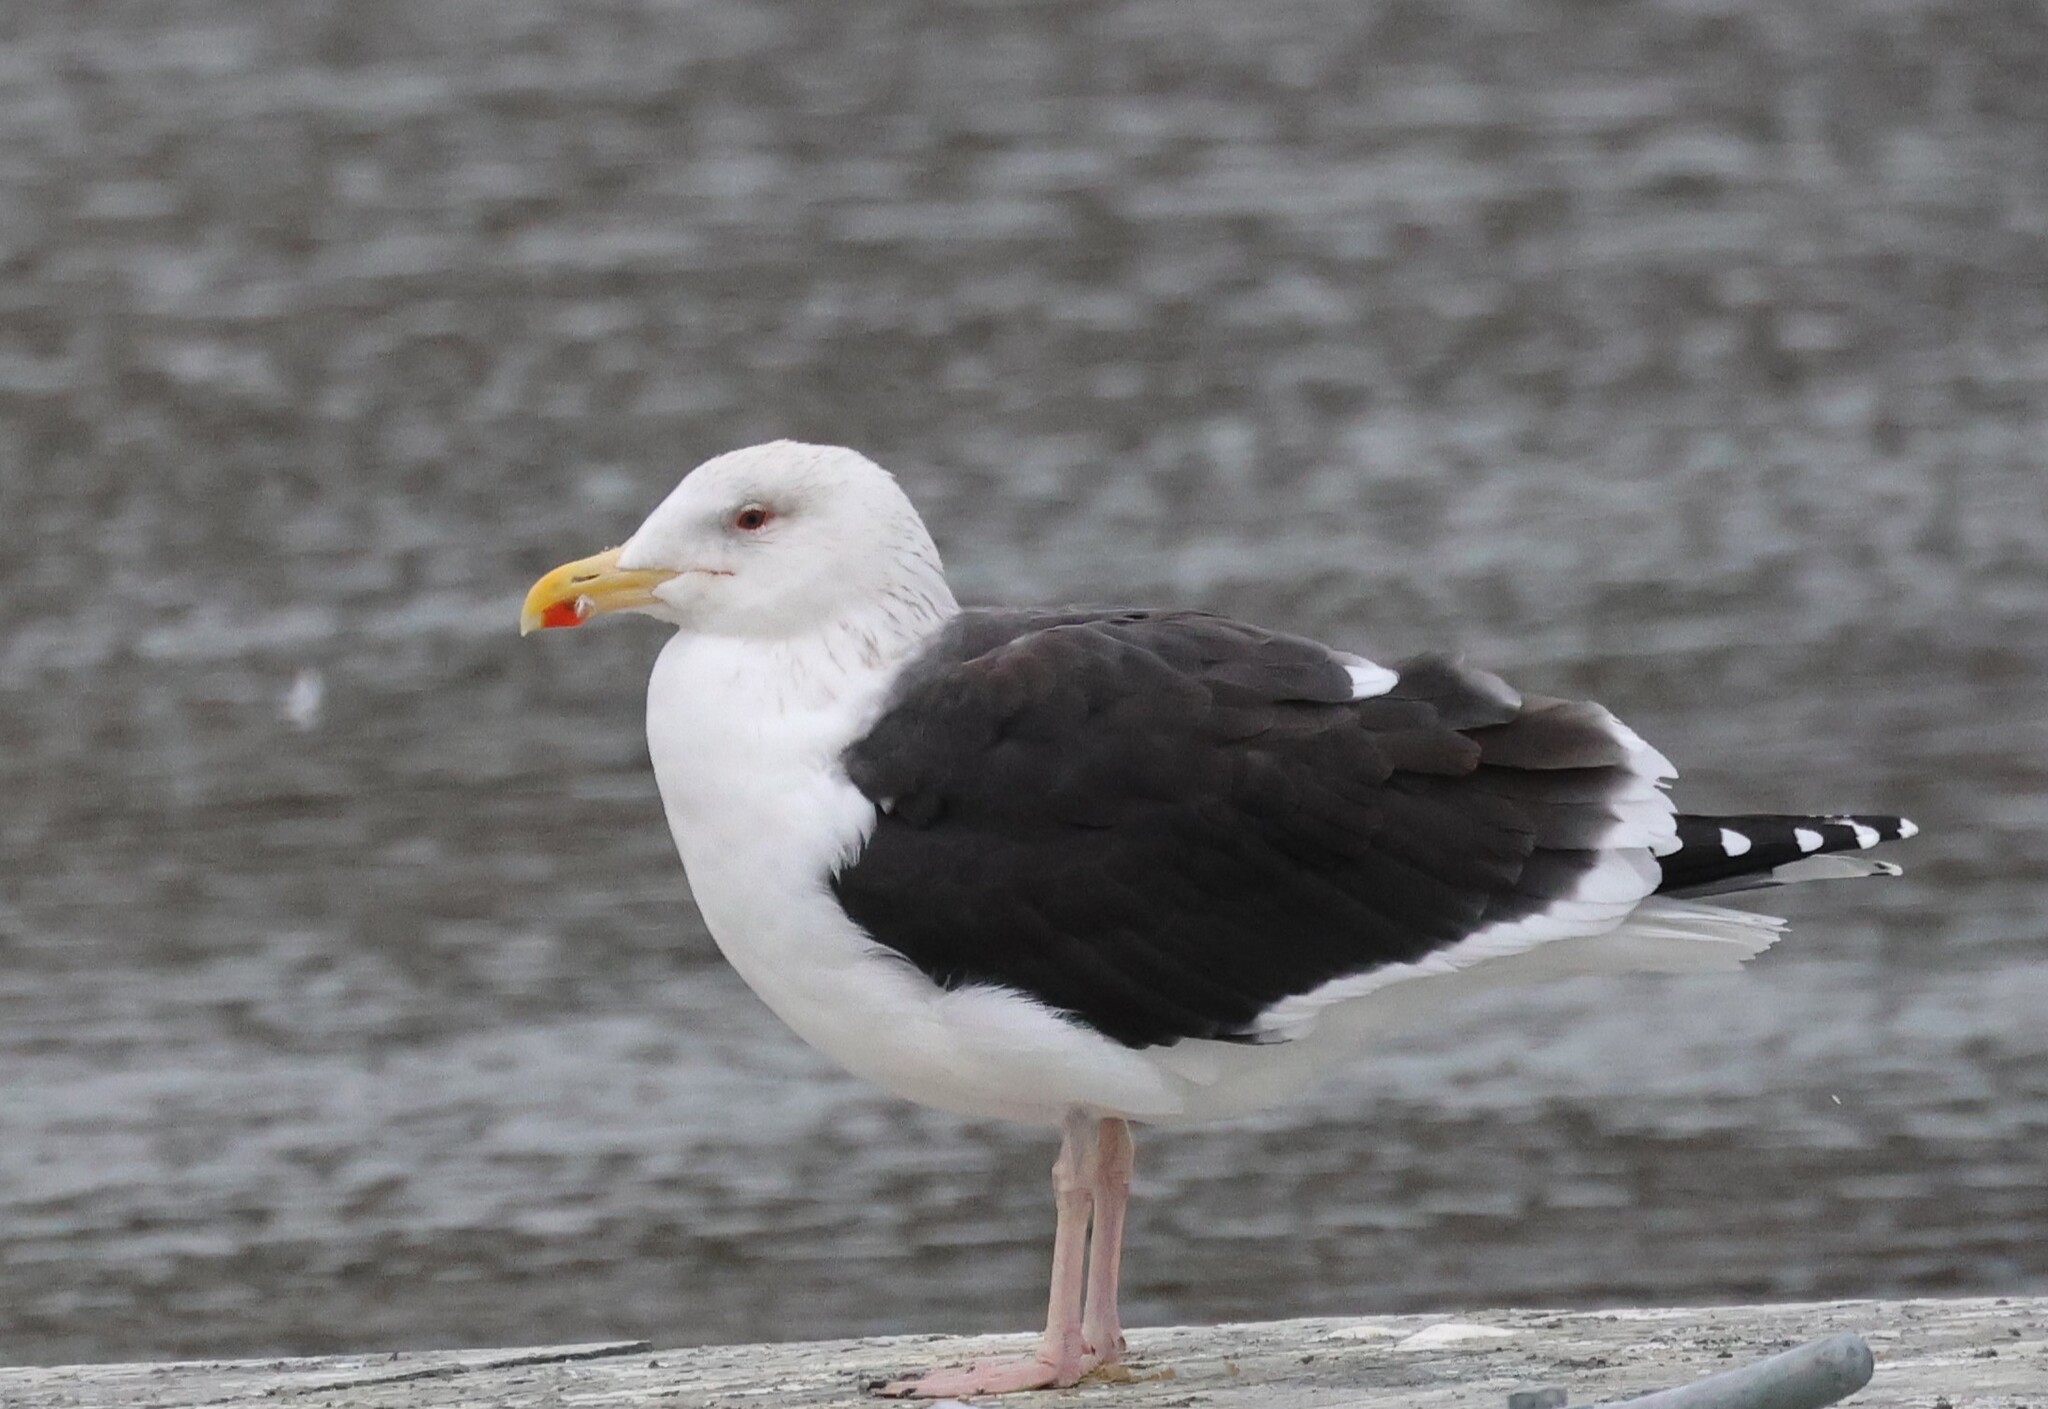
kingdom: Animalia
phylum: Chordata
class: Aves
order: Charadriiformes
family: Laridae
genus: Larus
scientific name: Larus marinus
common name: Great black-backed gull
